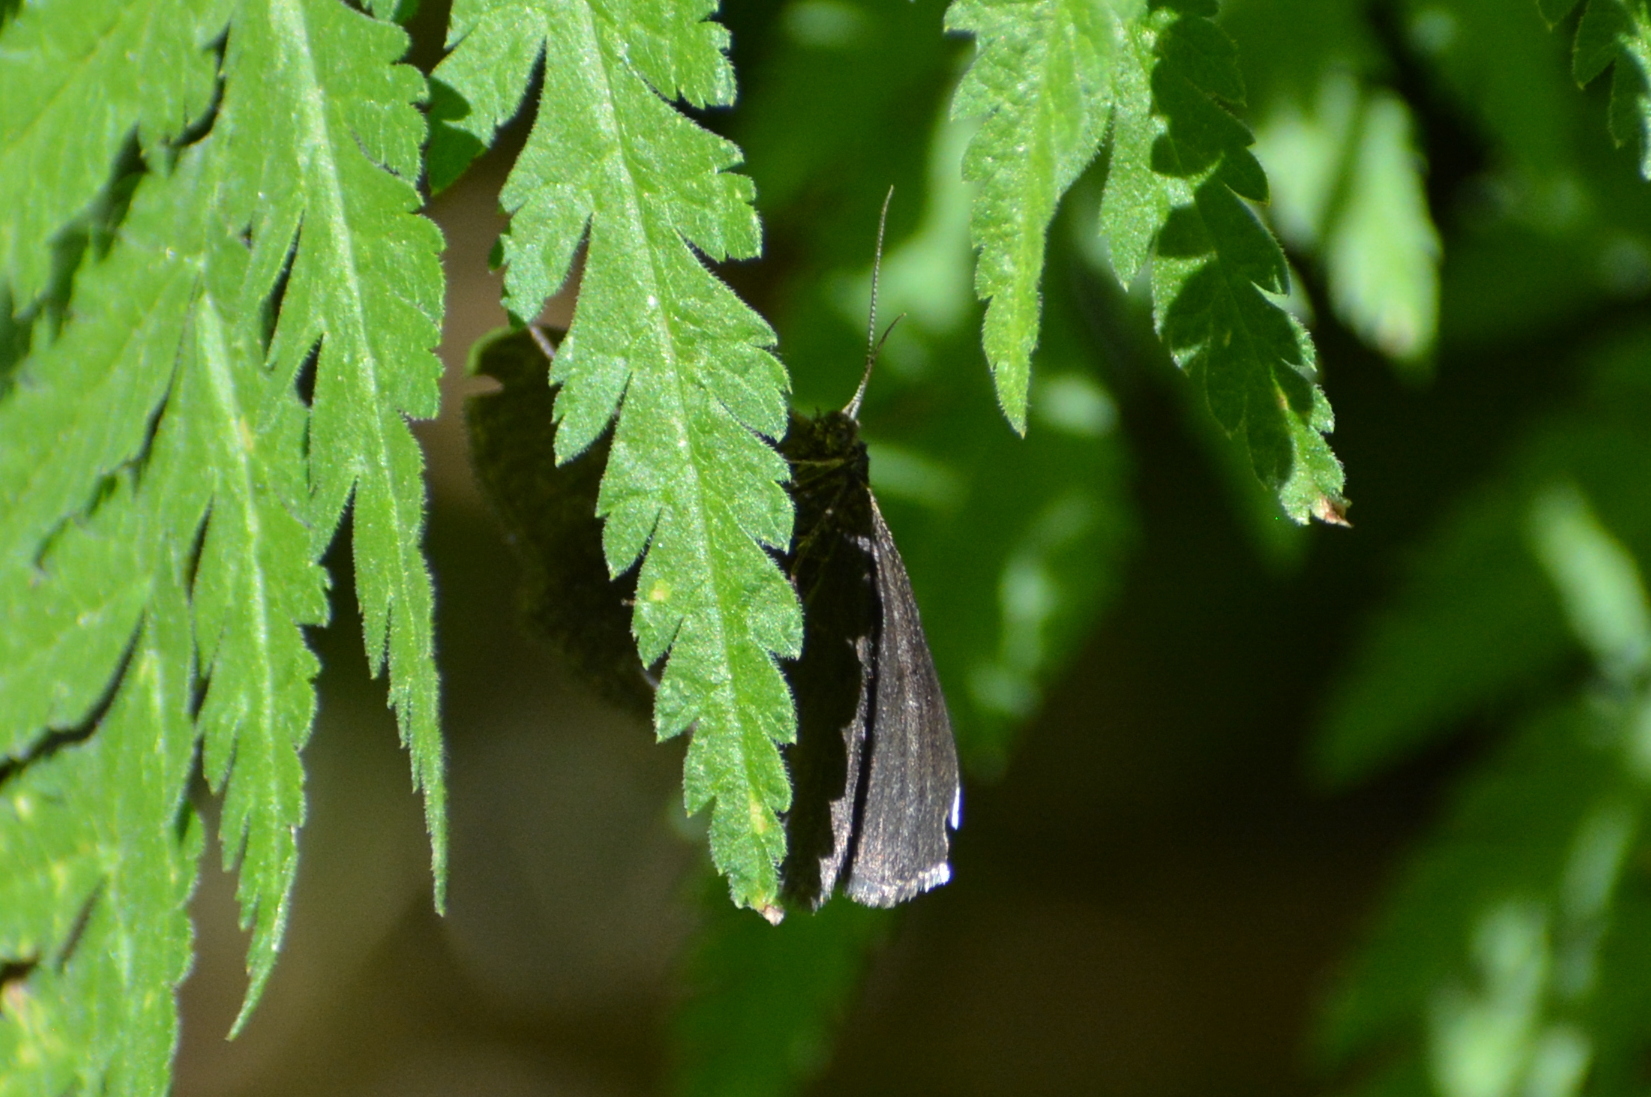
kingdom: Animalia
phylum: Arthropoda
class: Insecta
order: Lepidoptera
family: Geometridae
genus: Odezia
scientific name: Odezia atrata
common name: Chimney sweeper
